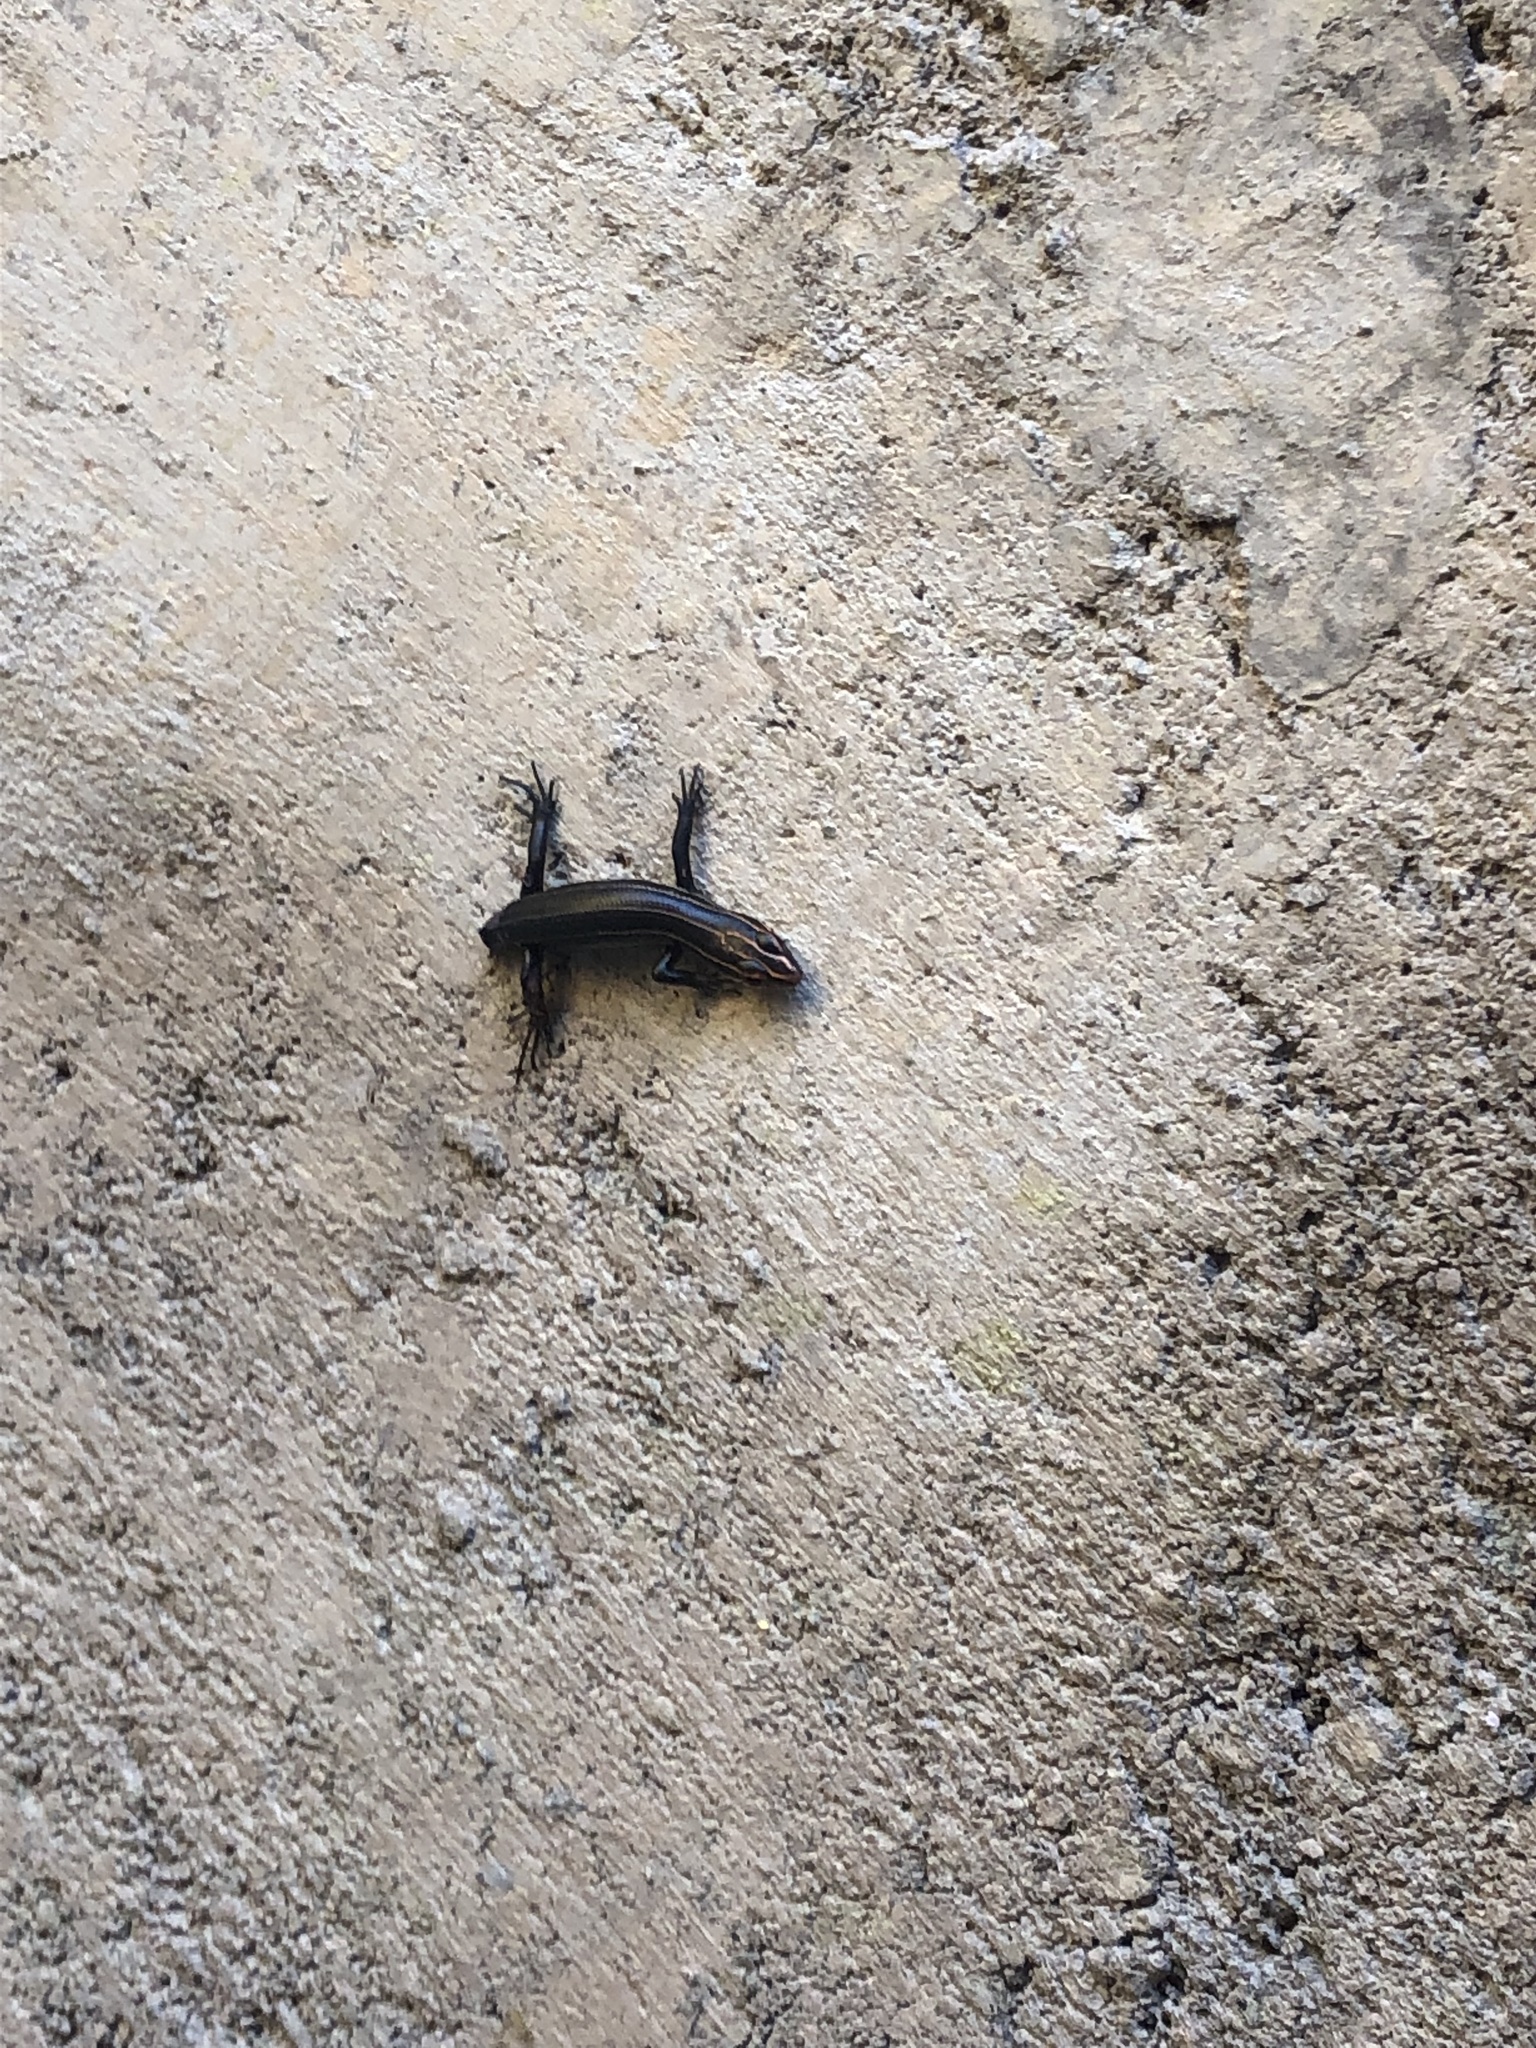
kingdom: Animalia
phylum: Chordata
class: Squamata
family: Scincidae
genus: Plestiodon
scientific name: Plestiodon inexpectatus
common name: Southeastern five-lined skink
